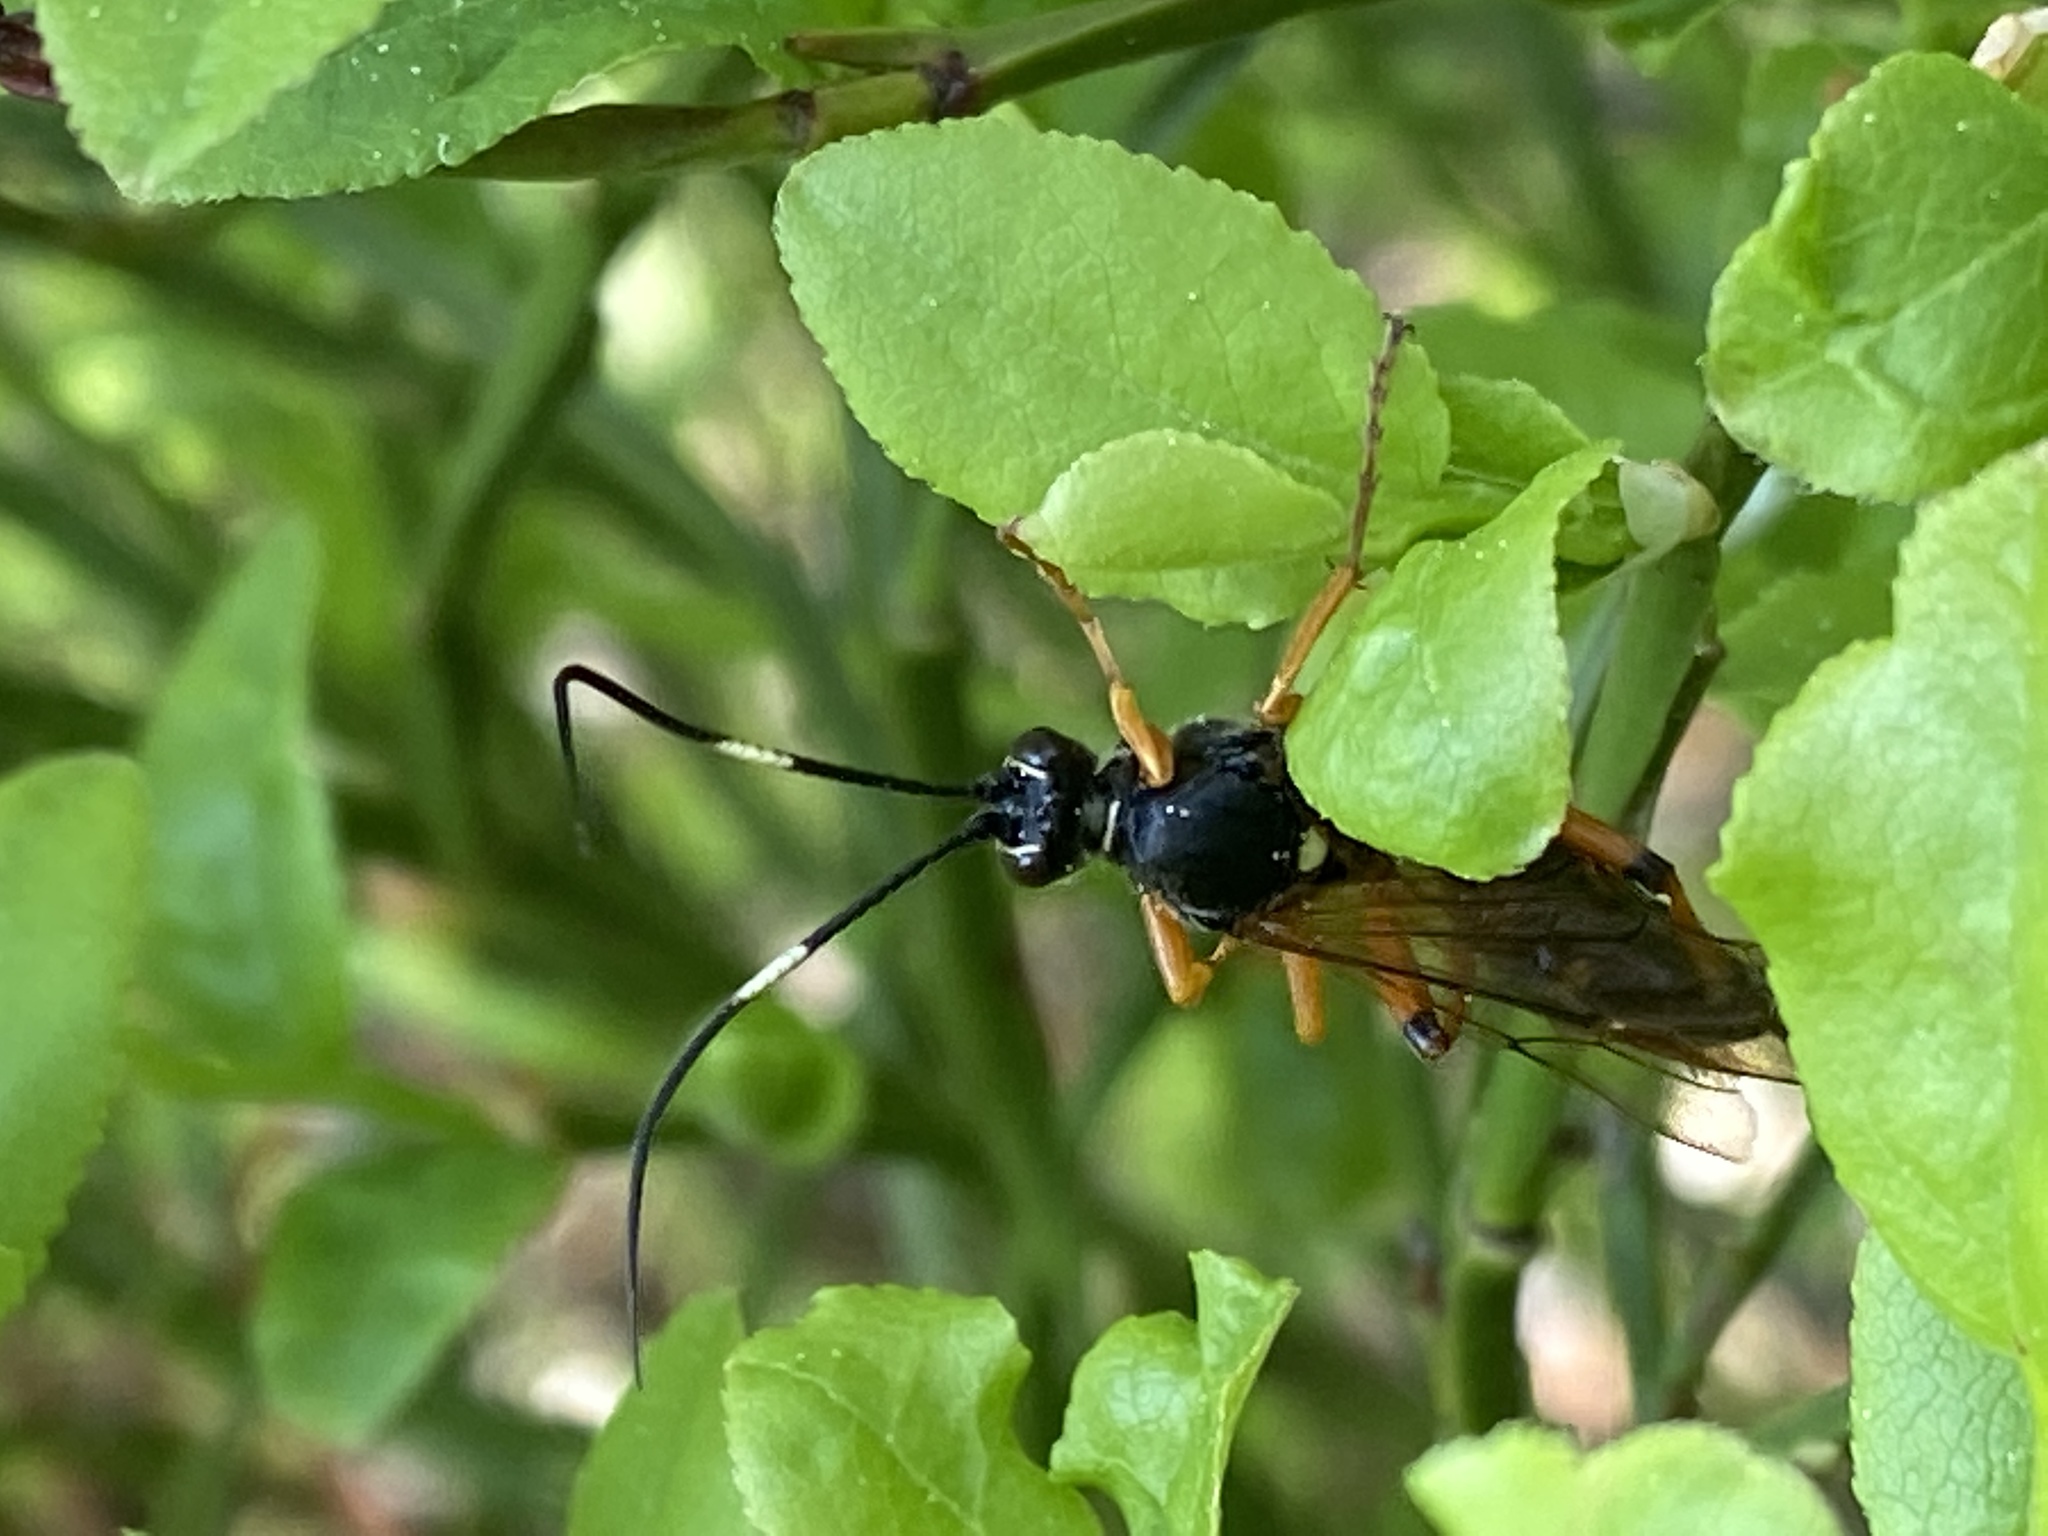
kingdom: Animalia
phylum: Arthropoda
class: Insecta
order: Hymenoptera
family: Ichneumonidae
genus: Diphyus
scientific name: Diphyus quadripunctorius
